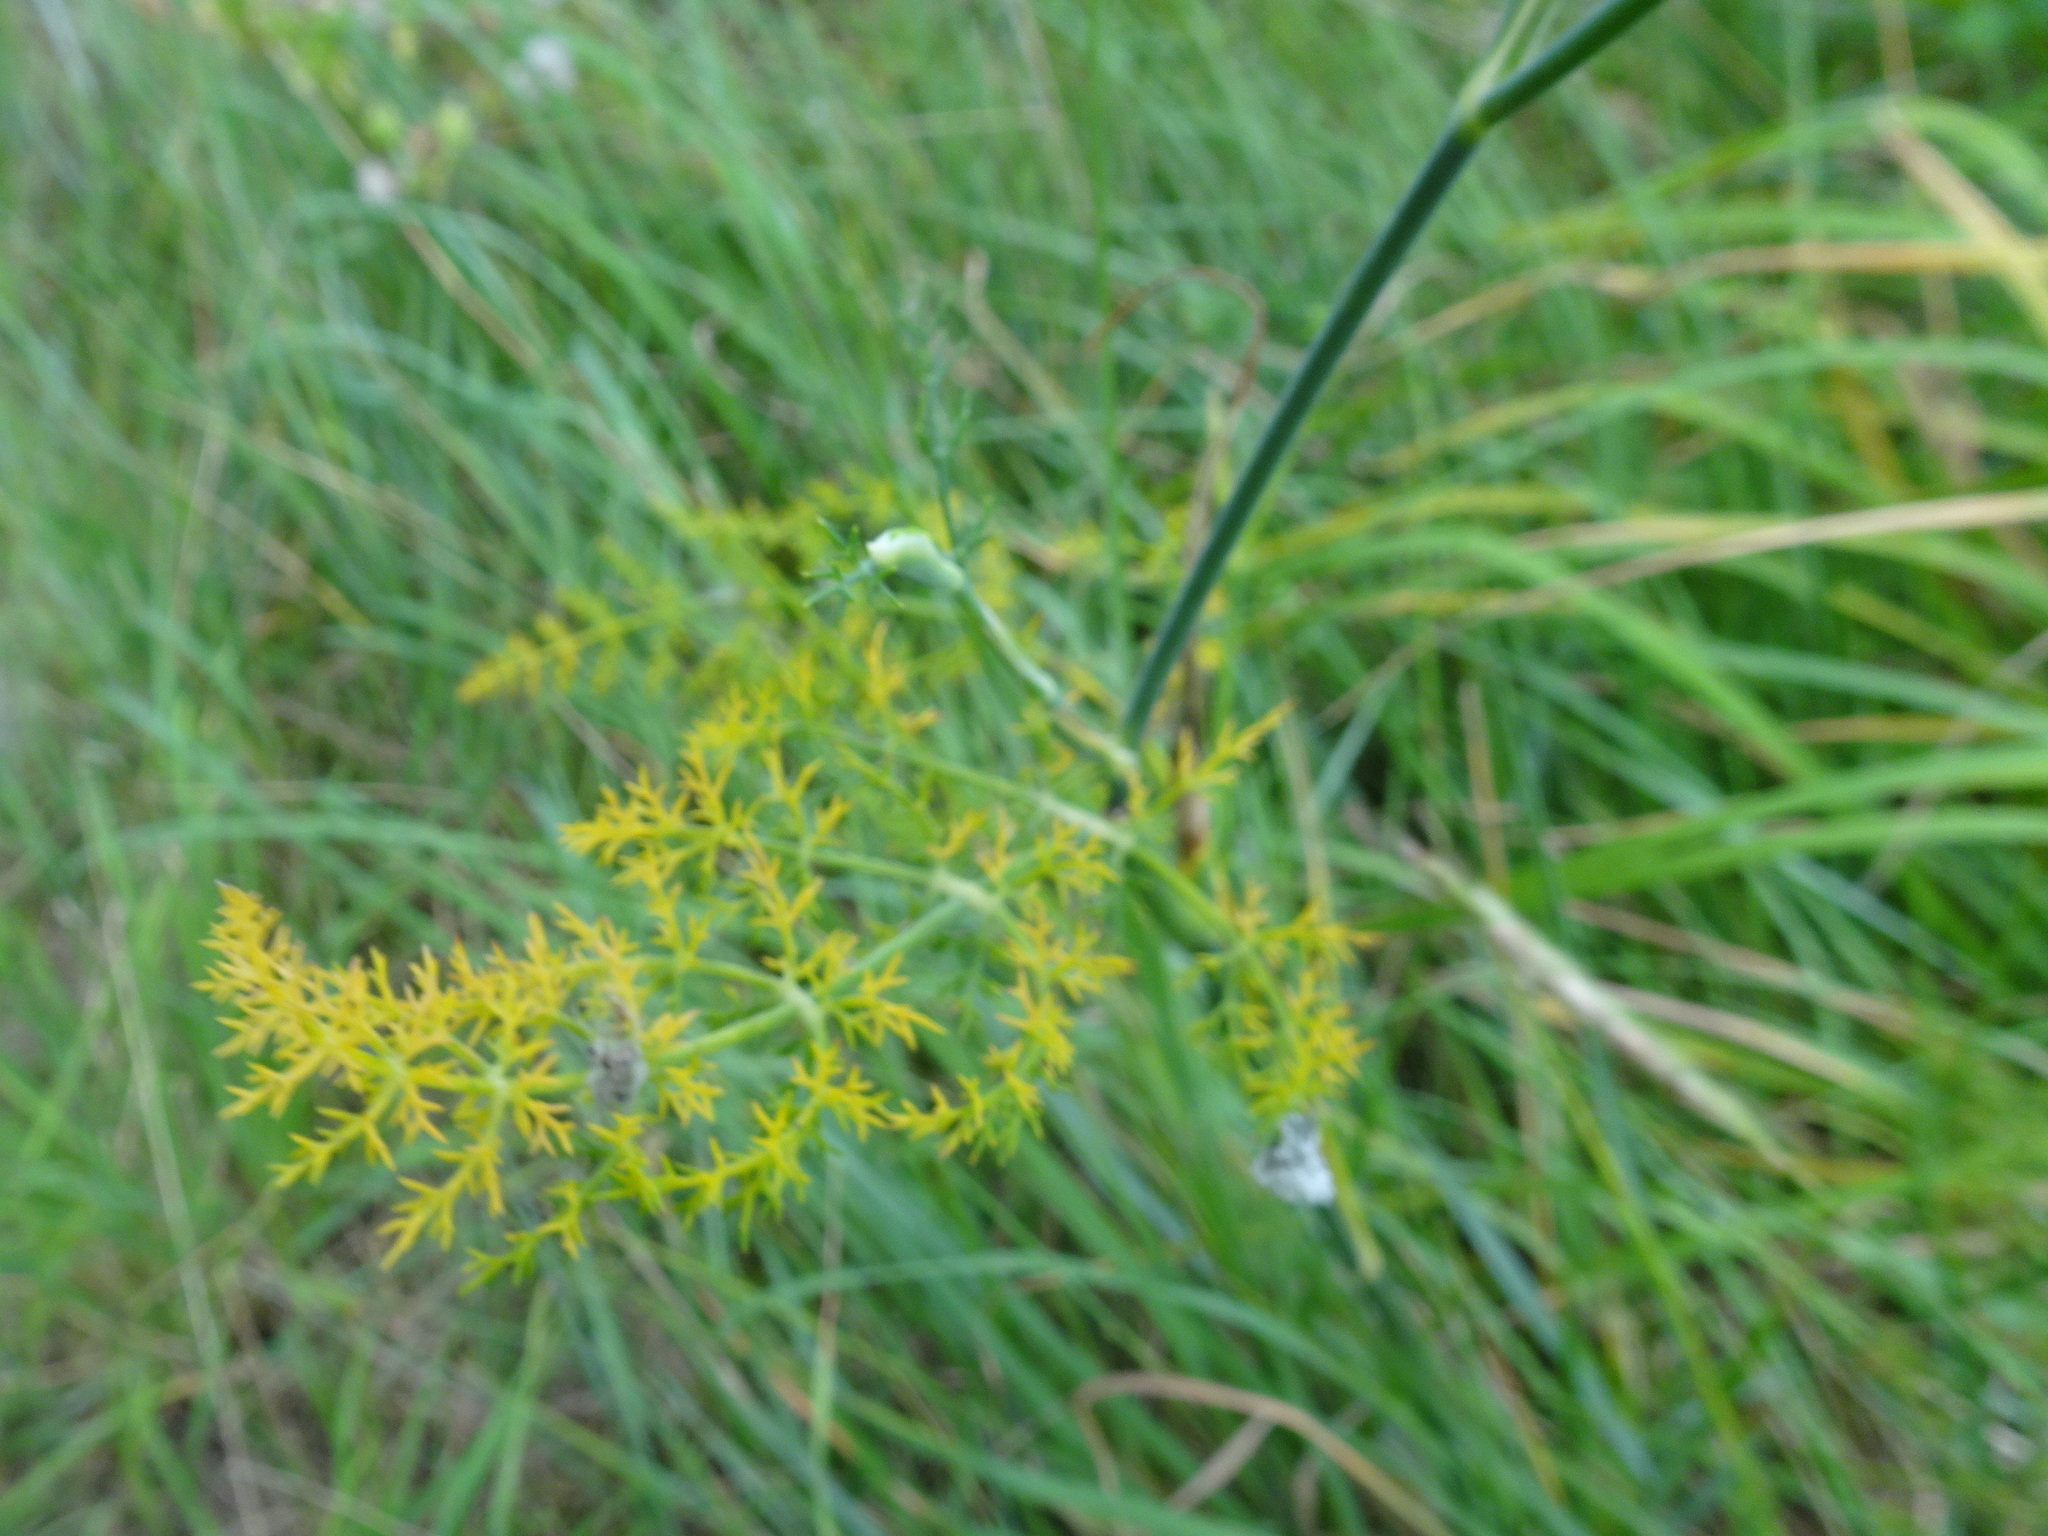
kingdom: Plantae
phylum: Tracheophyta
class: Magnoliopsida
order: Apiales
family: Apiaceae
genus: Pastinaca
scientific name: Pastinaca sativa
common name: Wild parsnip
